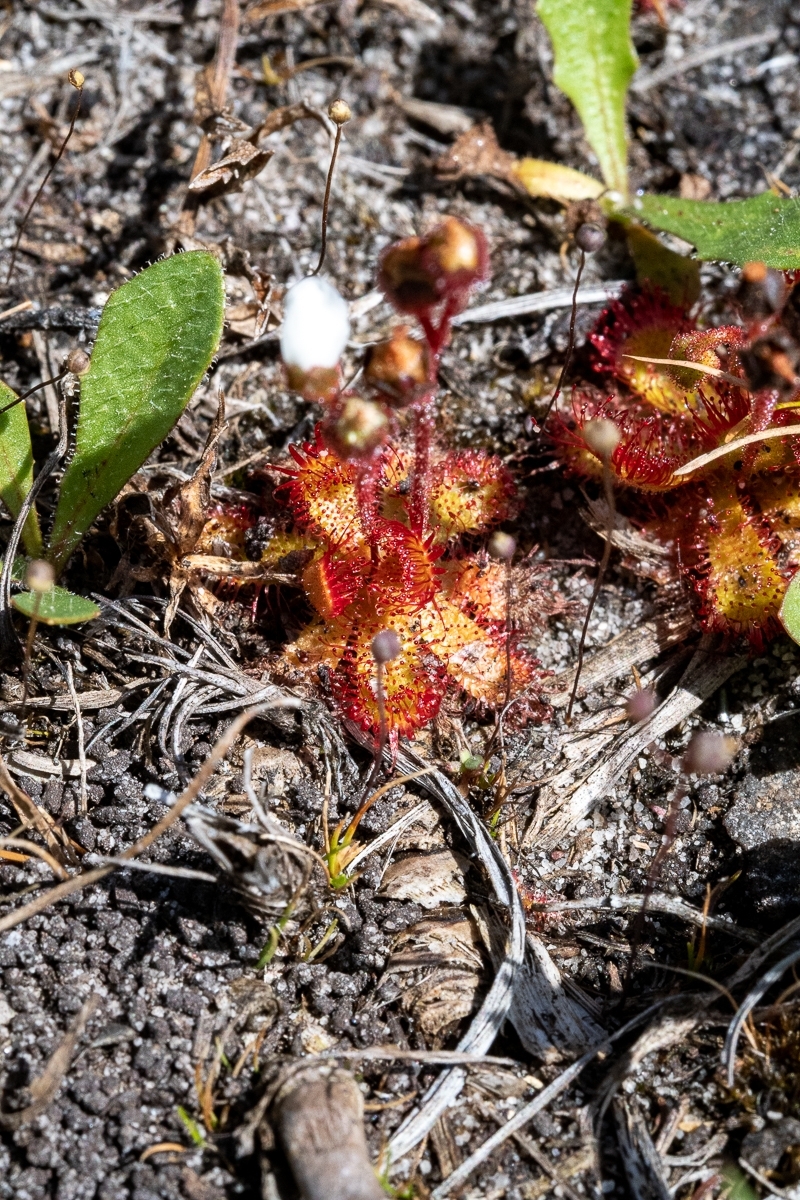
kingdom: Plantae
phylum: Tracheophyta
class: Magnoliopsida
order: Caryophyllales
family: Droseraceae
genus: Drosera
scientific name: Drosera trinervia
